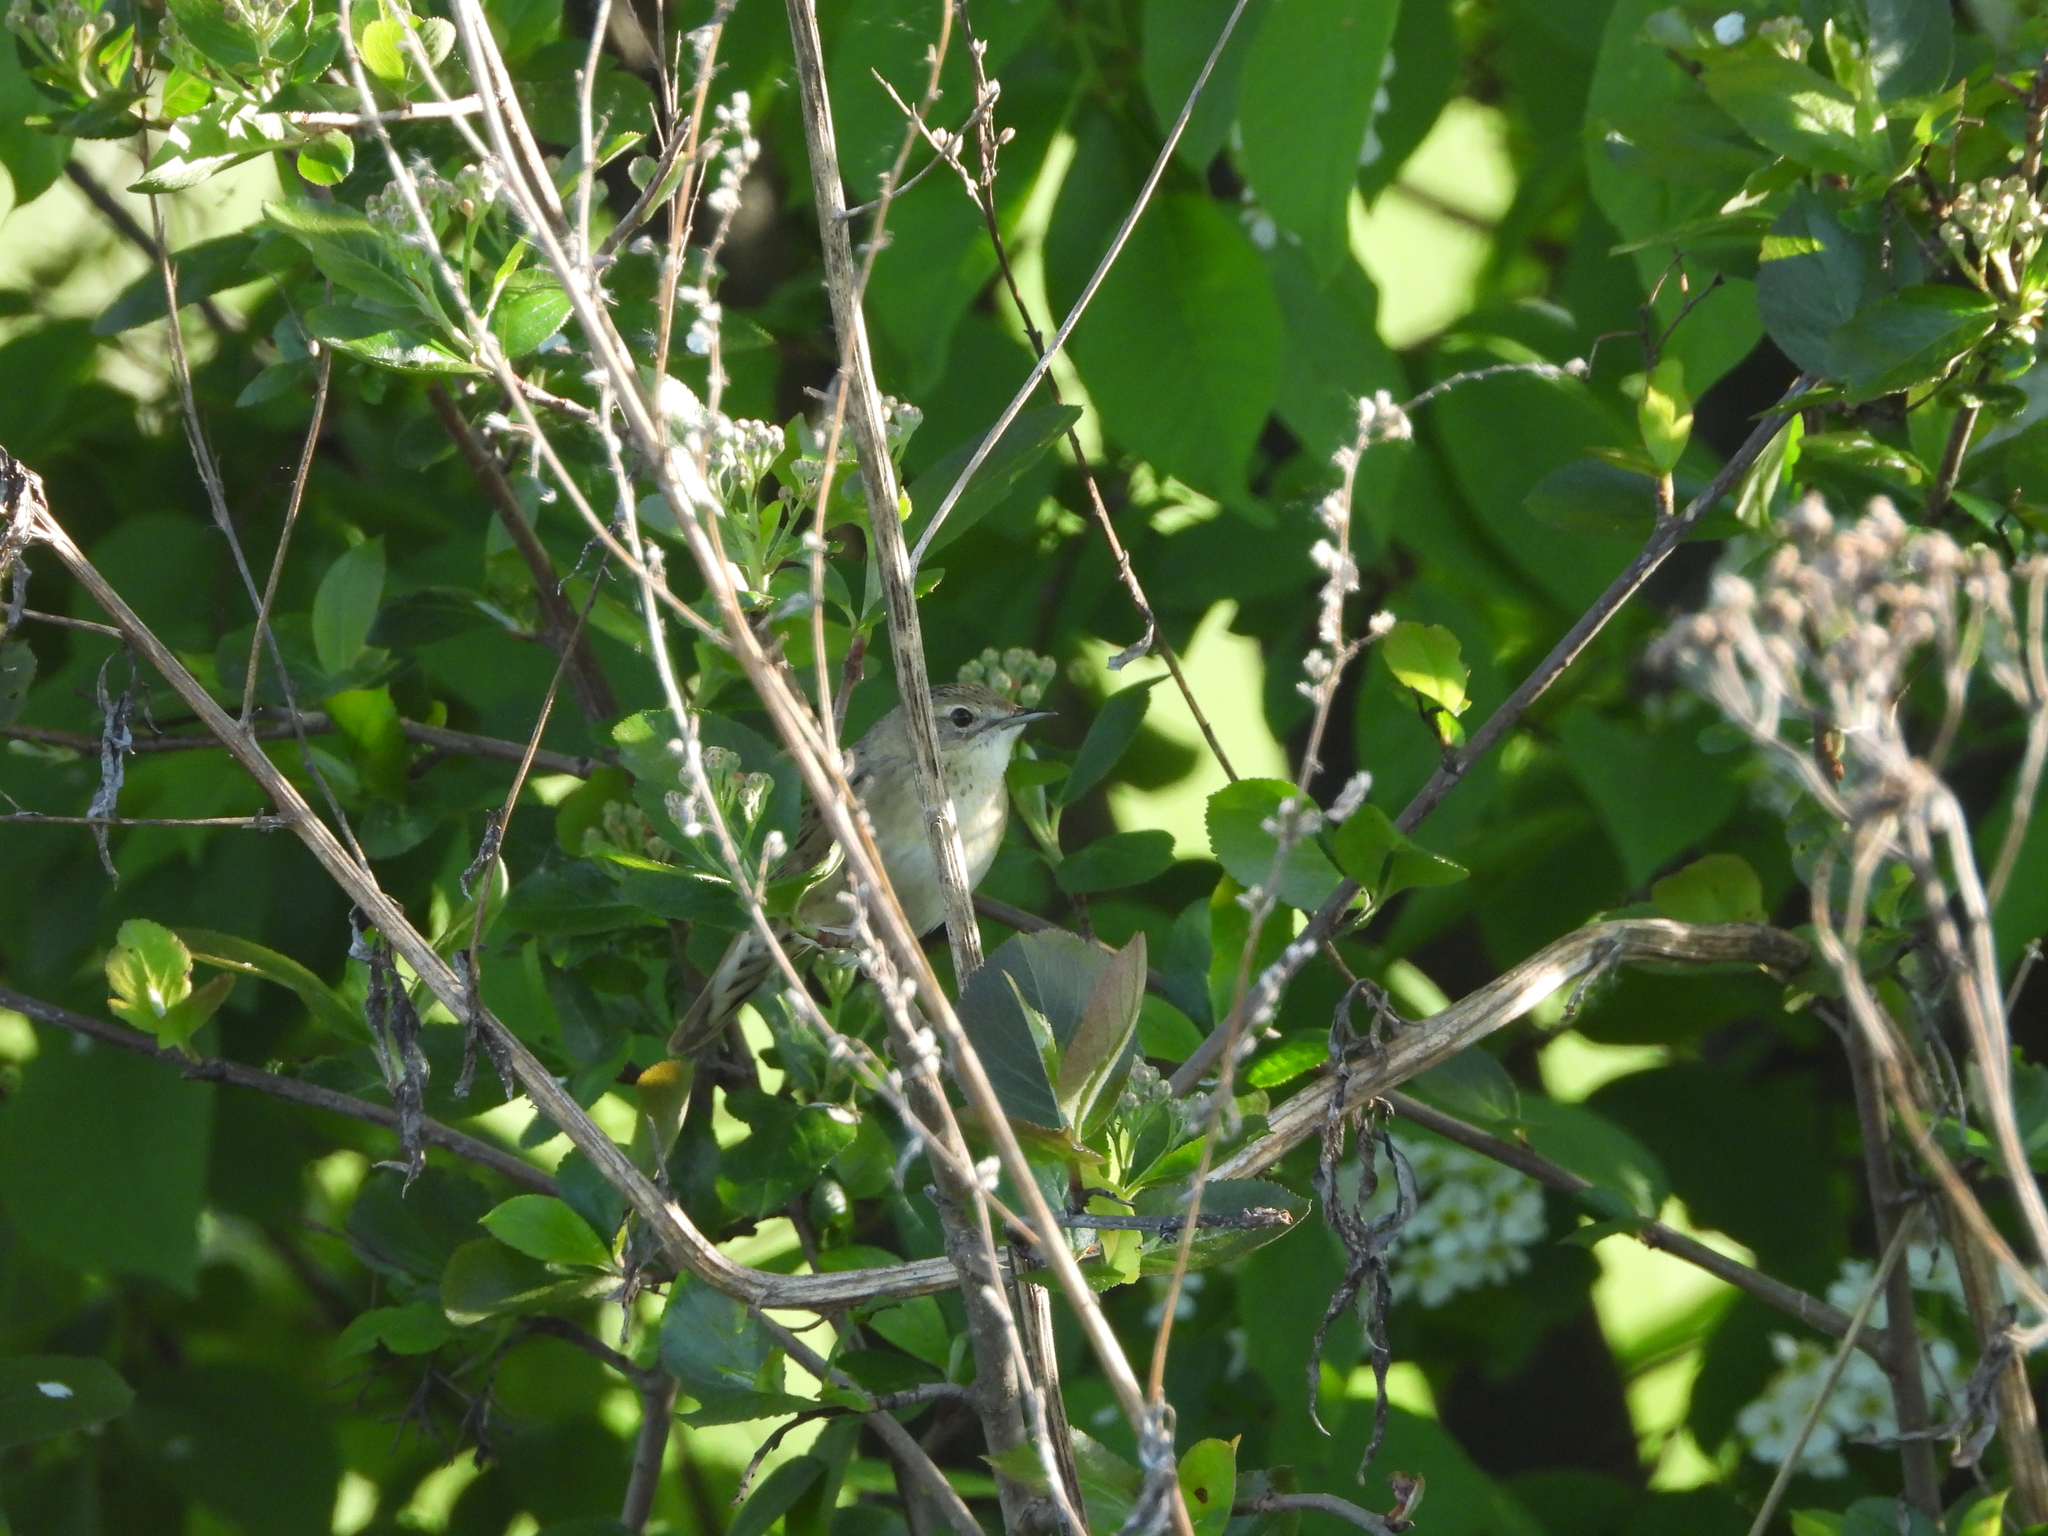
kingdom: Animalia
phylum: Chordata
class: Aves
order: Passeriformes
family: Locustellidae
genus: Locustella
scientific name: Locustella naevia
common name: Common grasshopper warbler
